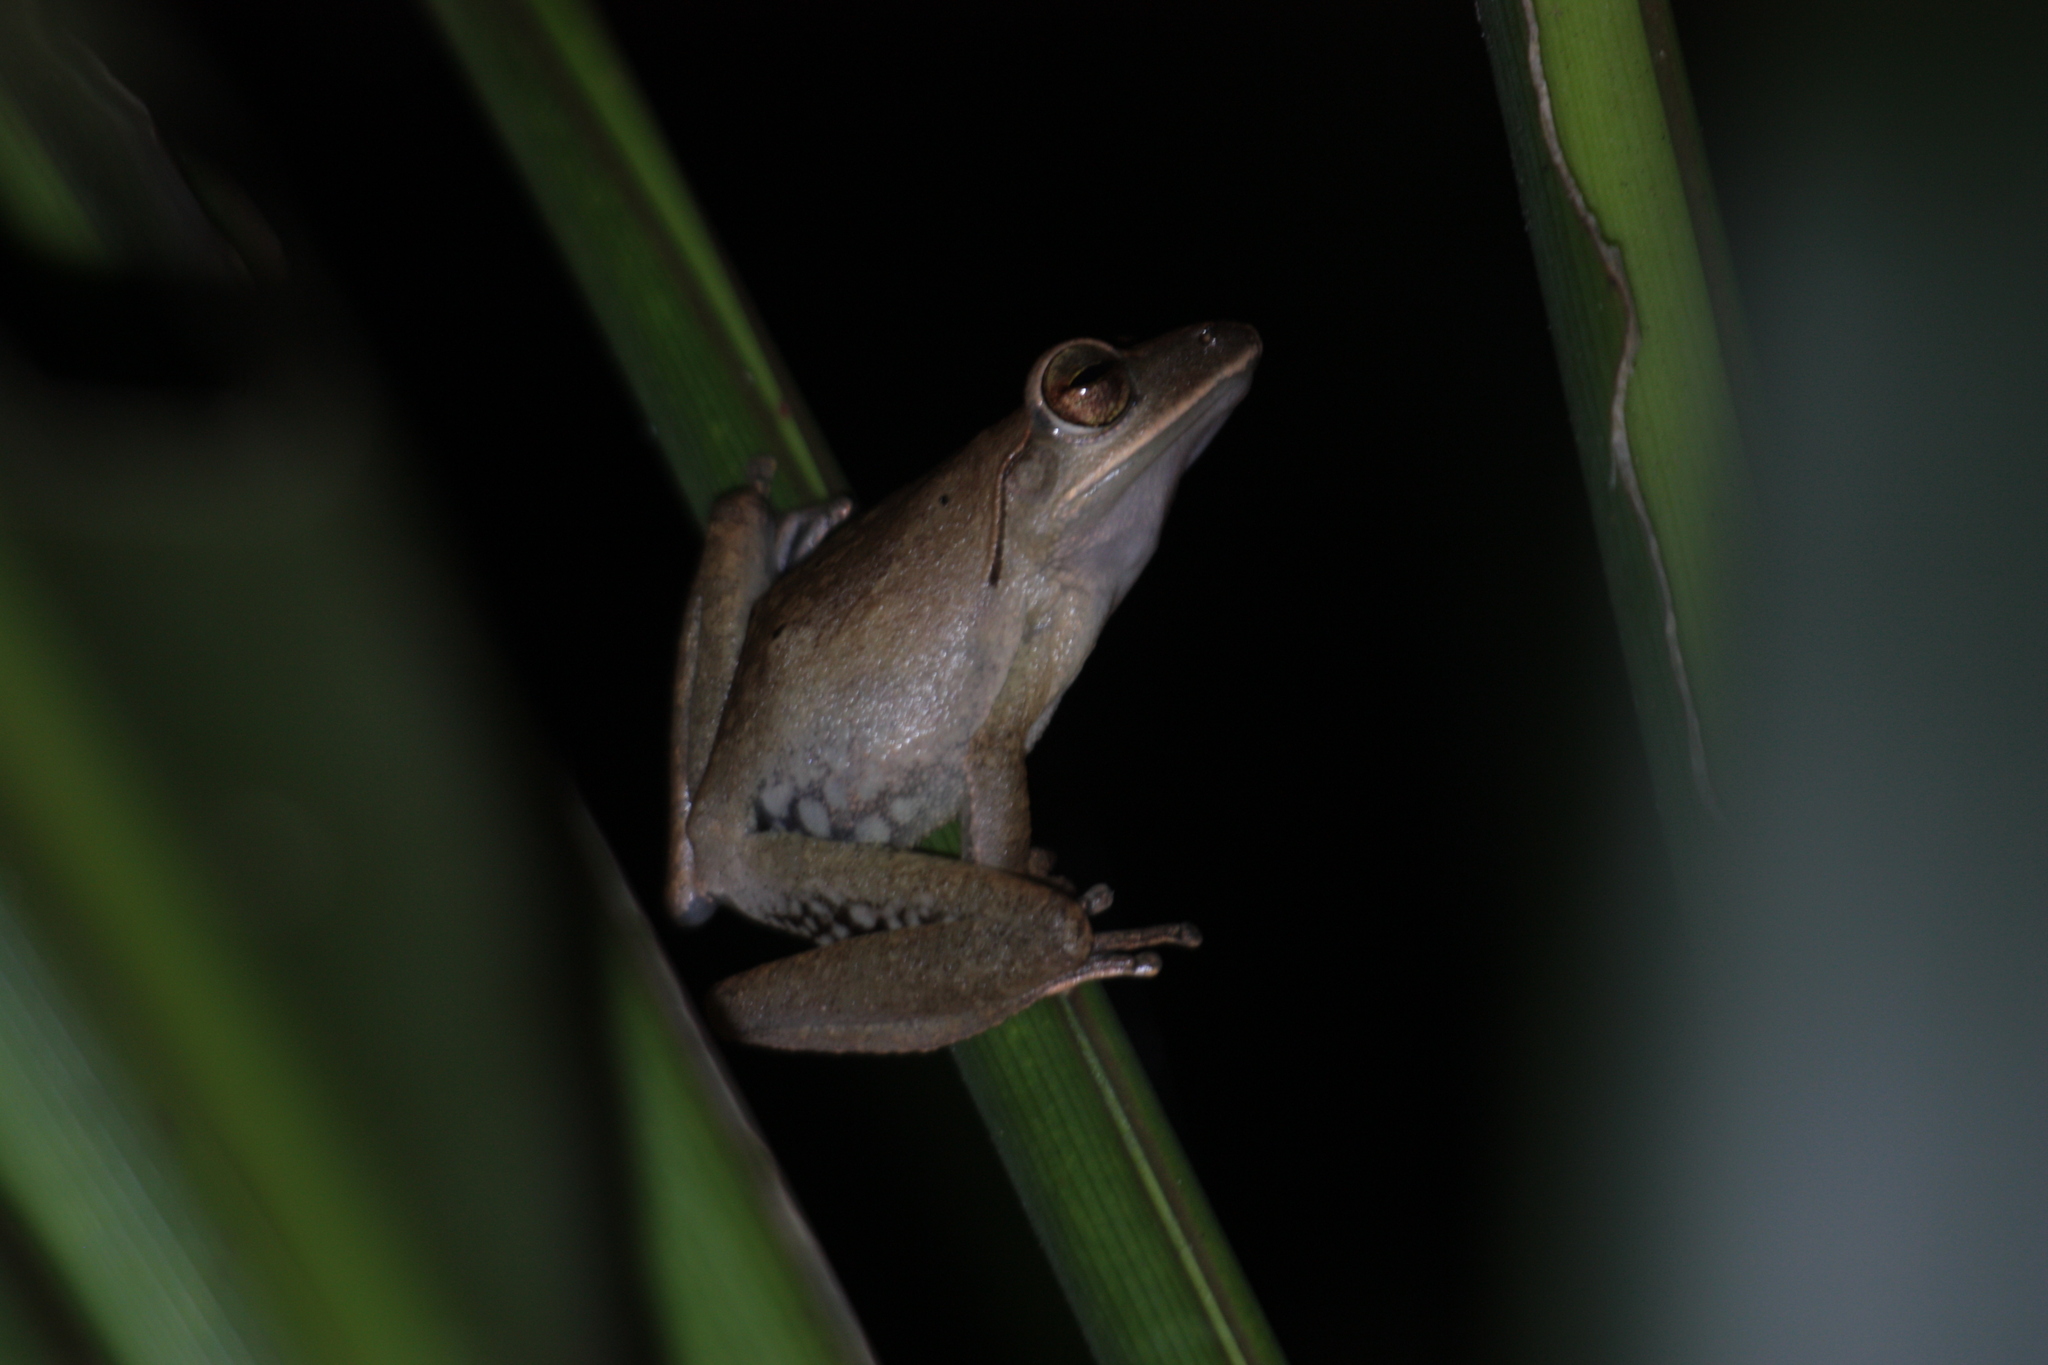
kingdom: Animalia
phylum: Chordata
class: Amphibia
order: Anura
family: Rhacophoridae
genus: Polypedates
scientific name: Polypedates megacephalus
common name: Hong kong whipping frog
